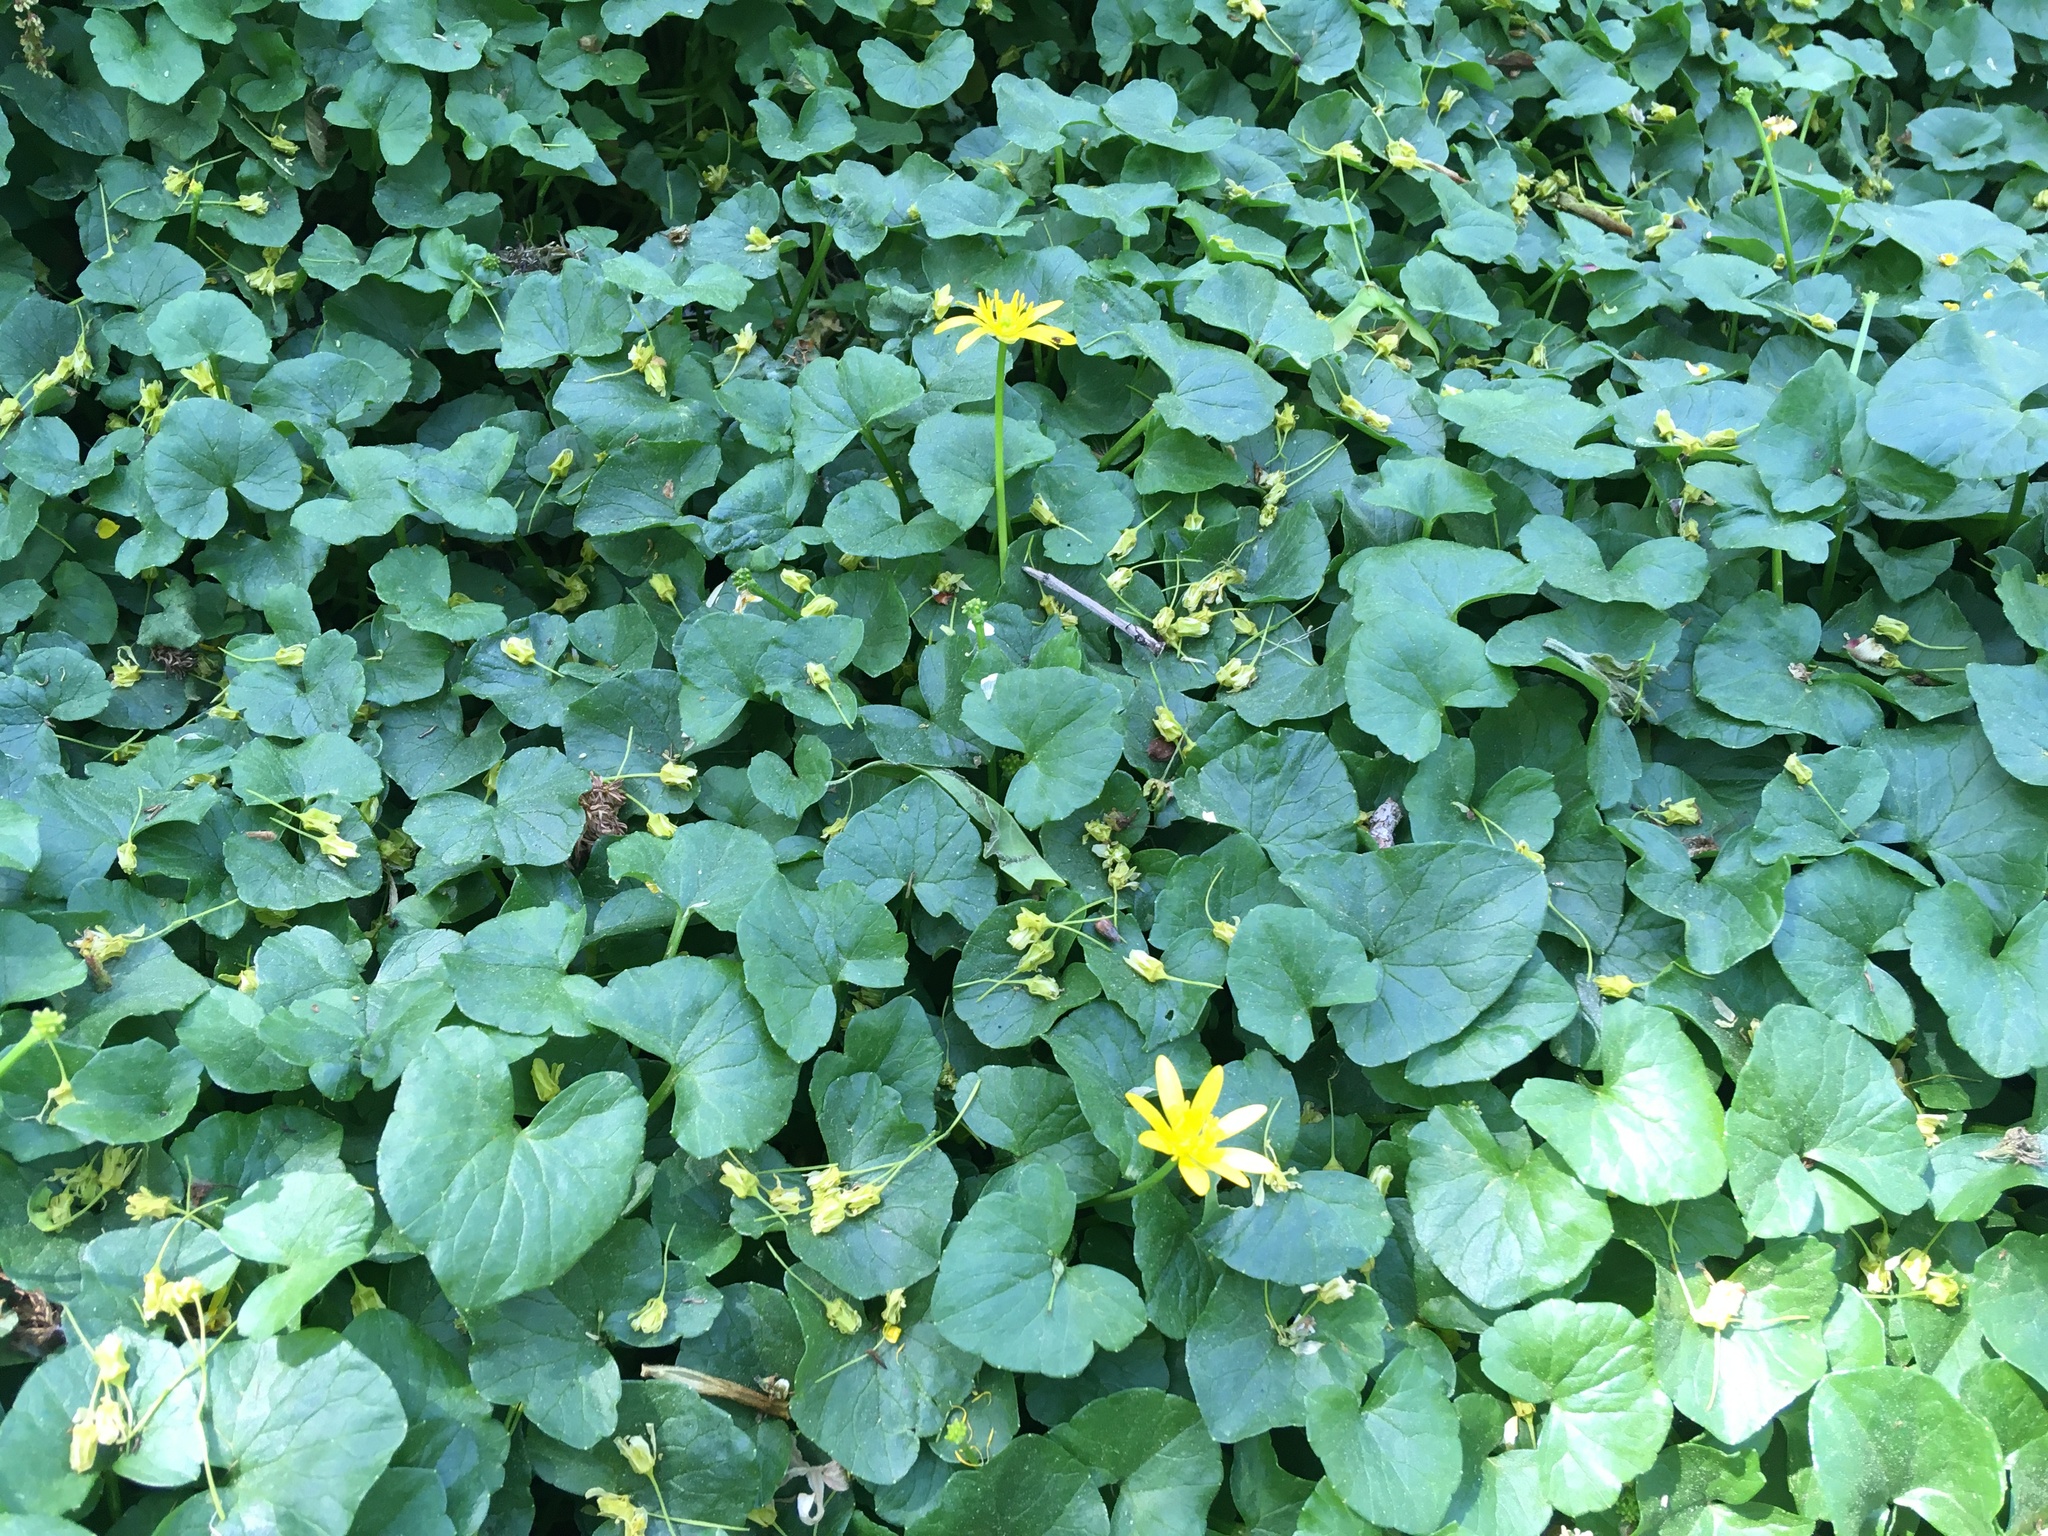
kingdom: Plantae
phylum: Tracheophyta
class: Magnoliopsida
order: Ranunculales
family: Ranunculaceae
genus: Ficaria
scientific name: Ficaria verna
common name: Lesser celandine
